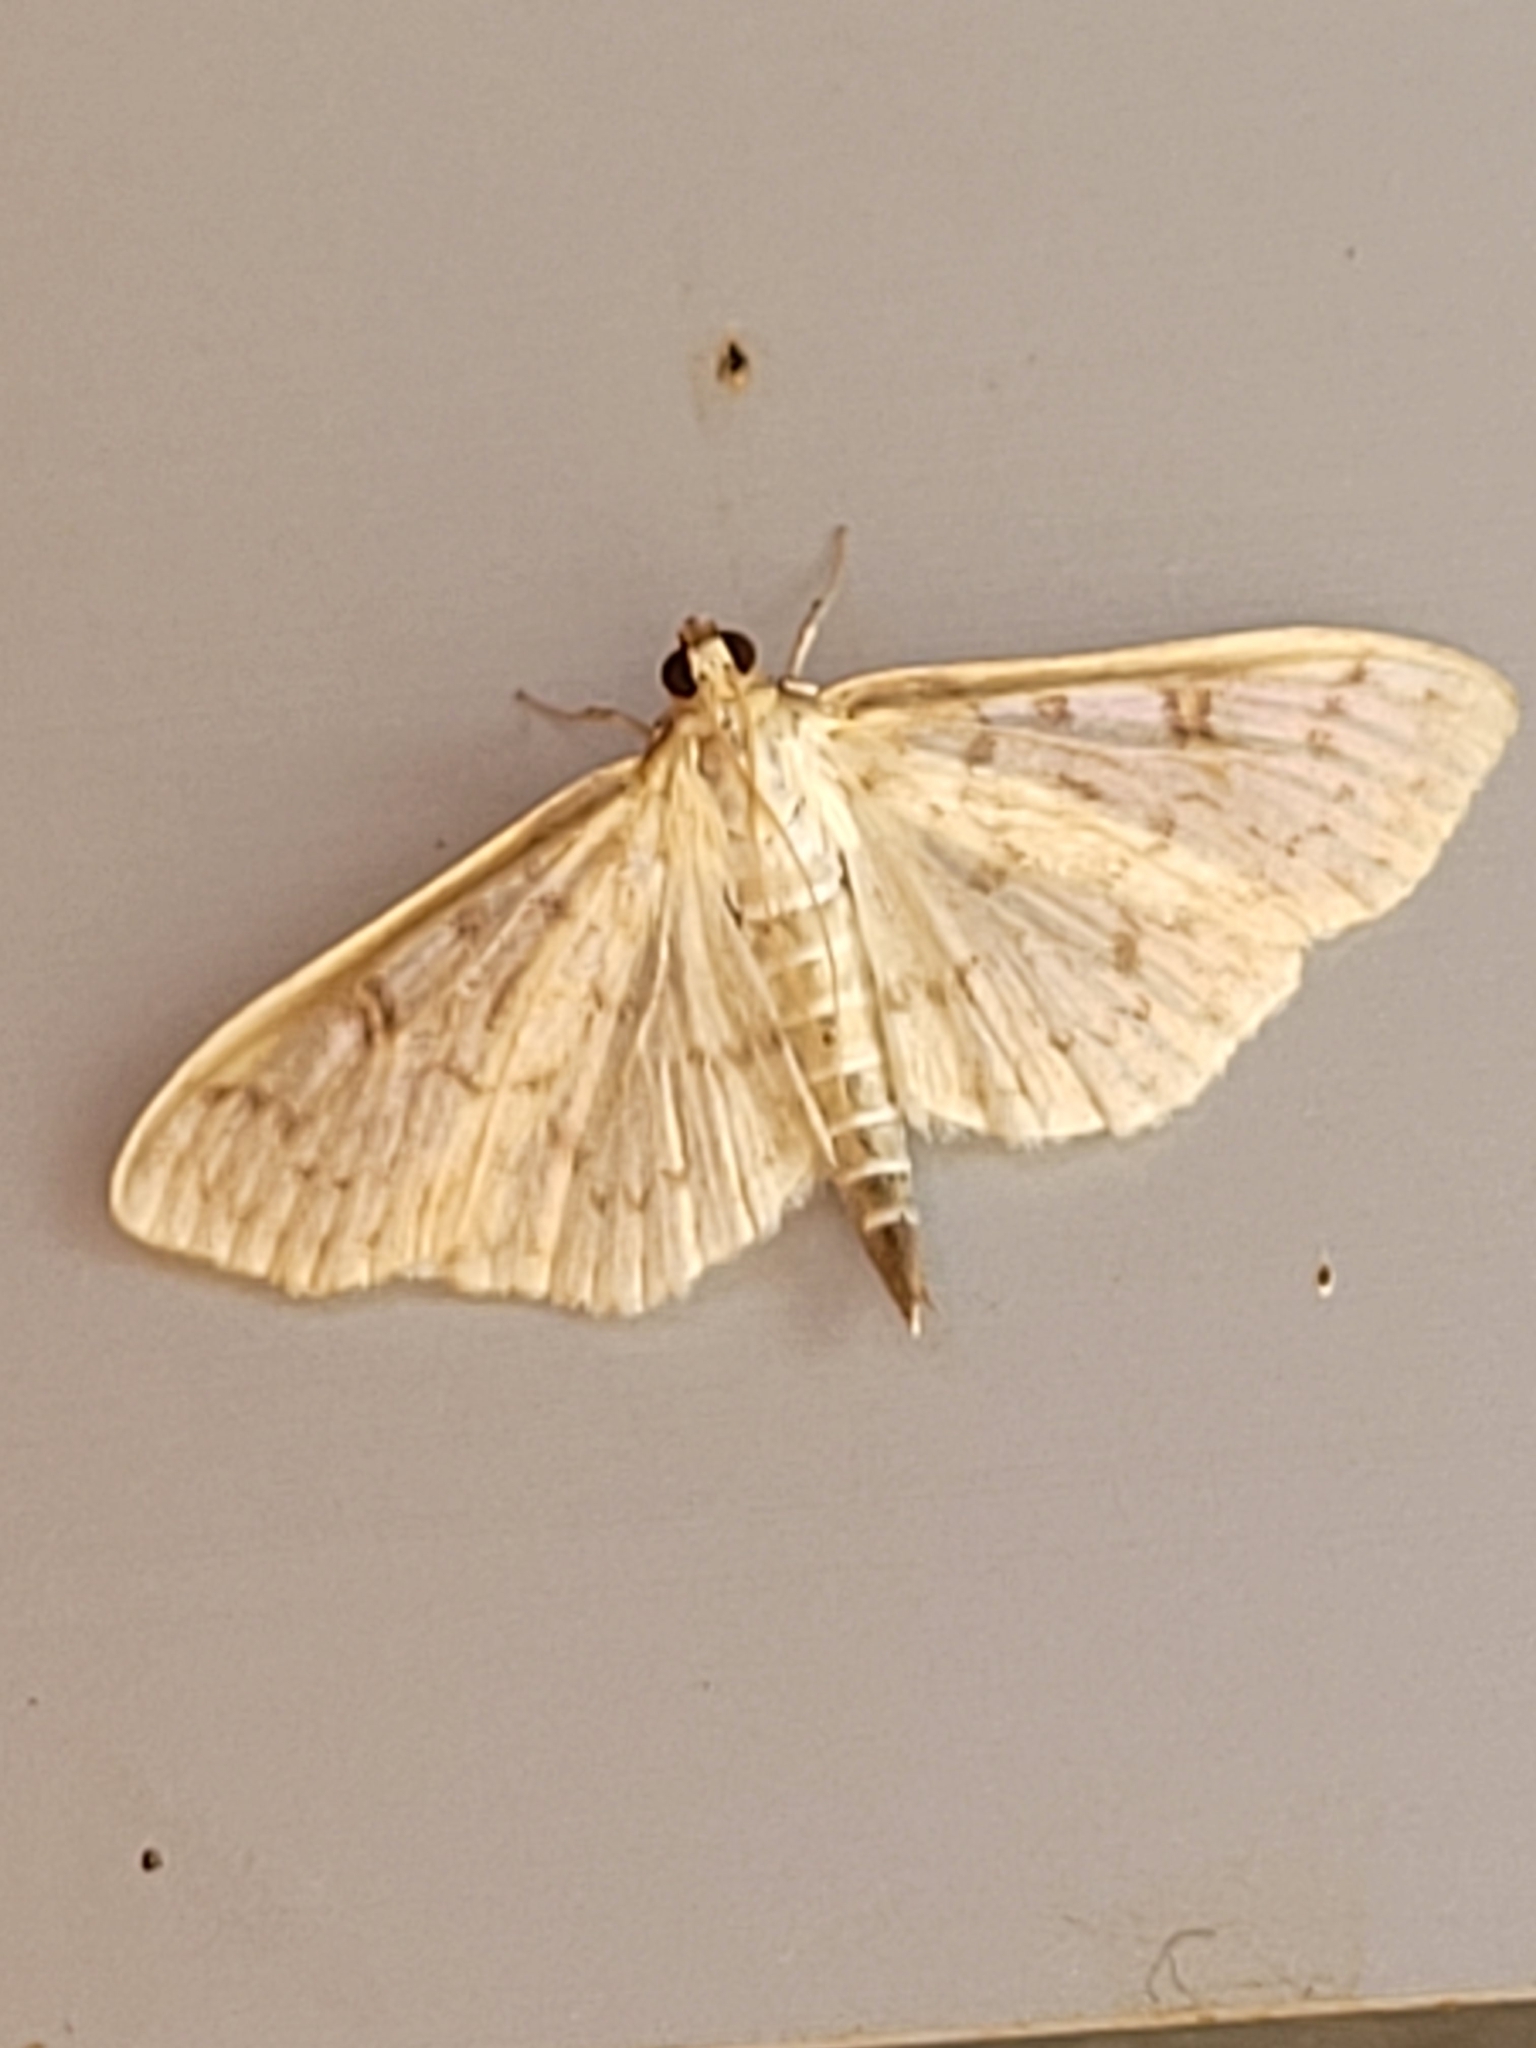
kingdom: Animalia
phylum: Arthropoda
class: Insecta
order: Lepidoptera
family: Crambidae
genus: Herpetogramma
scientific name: Herpetogramma aquilonalis
